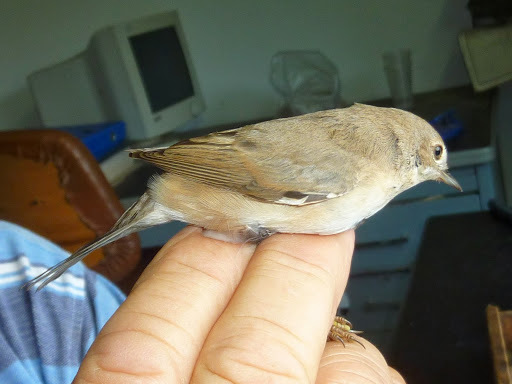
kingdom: Animalia
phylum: Chordata
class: Aves
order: Passeriformes
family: Sylviidae
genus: Sylvia
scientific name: Sylvia communis
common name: Common whitethroat
